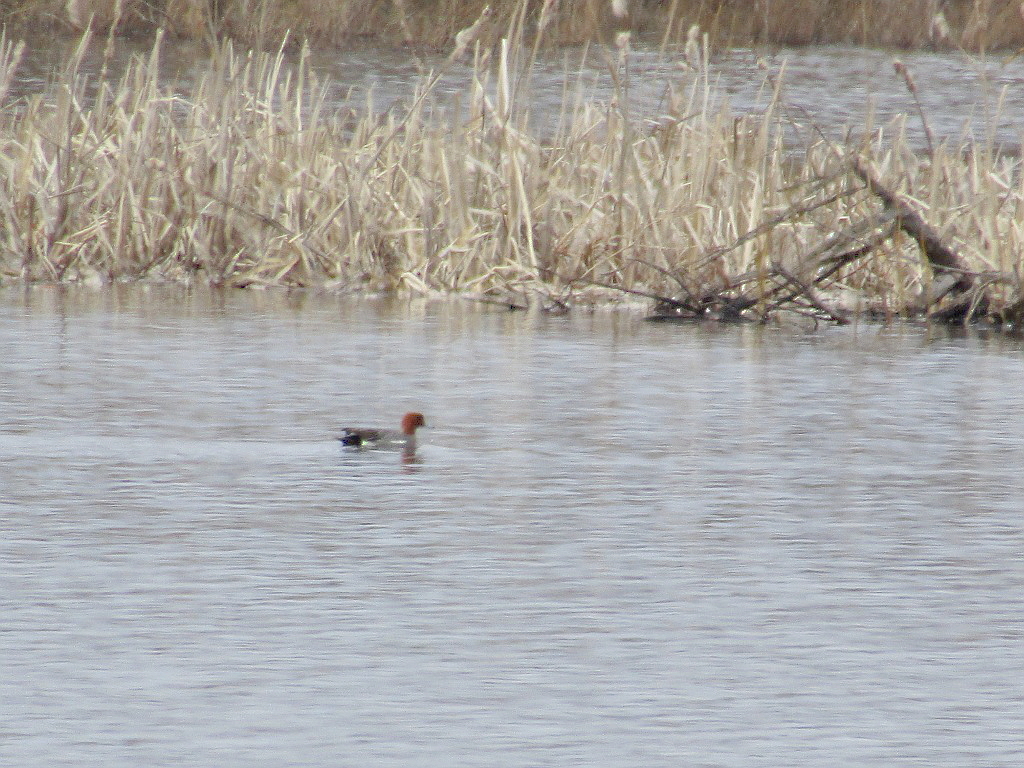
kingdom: Animalia
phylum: Chordata
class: Aves
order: Anseriformes
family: Anatidae
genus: Mareca
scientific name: Mareca penelope
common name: Eurasian wigeon
